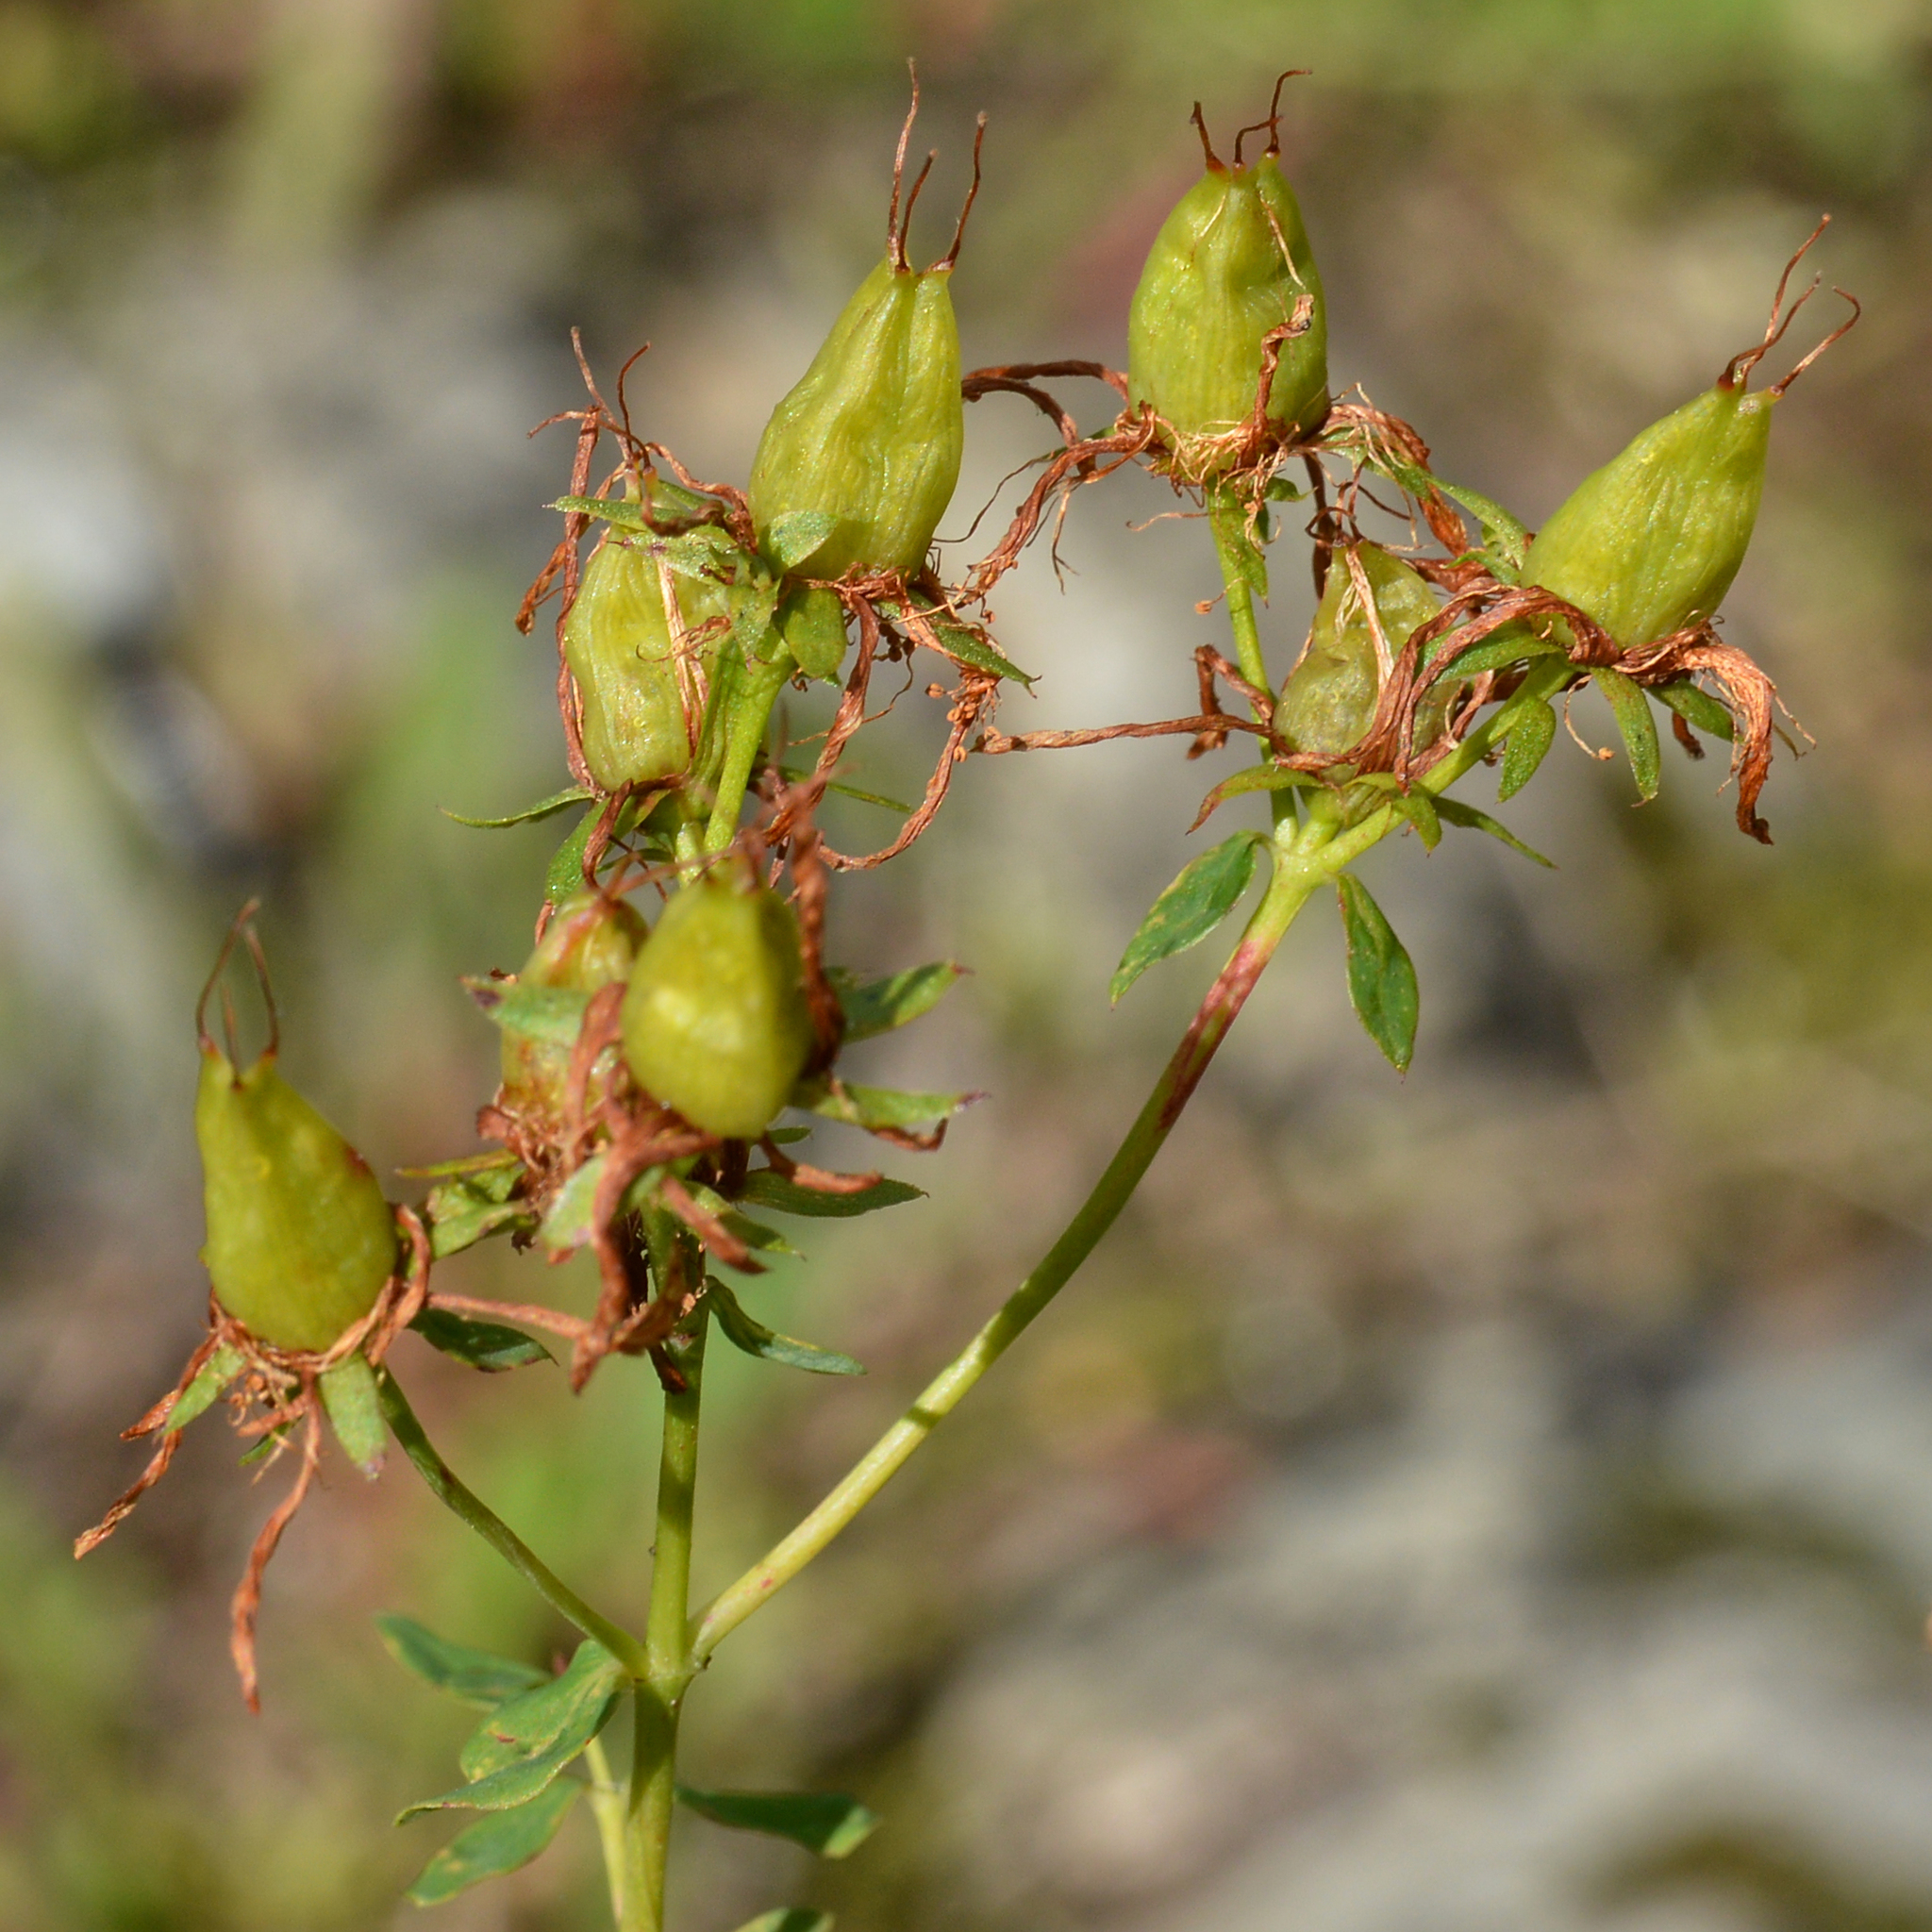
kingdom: Plantae
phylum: Tracheophyta
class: Magnoliopsida
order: Malpighiales
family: Hypericaceae
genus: Hypericum
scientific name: Hypericum perforatum
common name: Common st. johnswort
